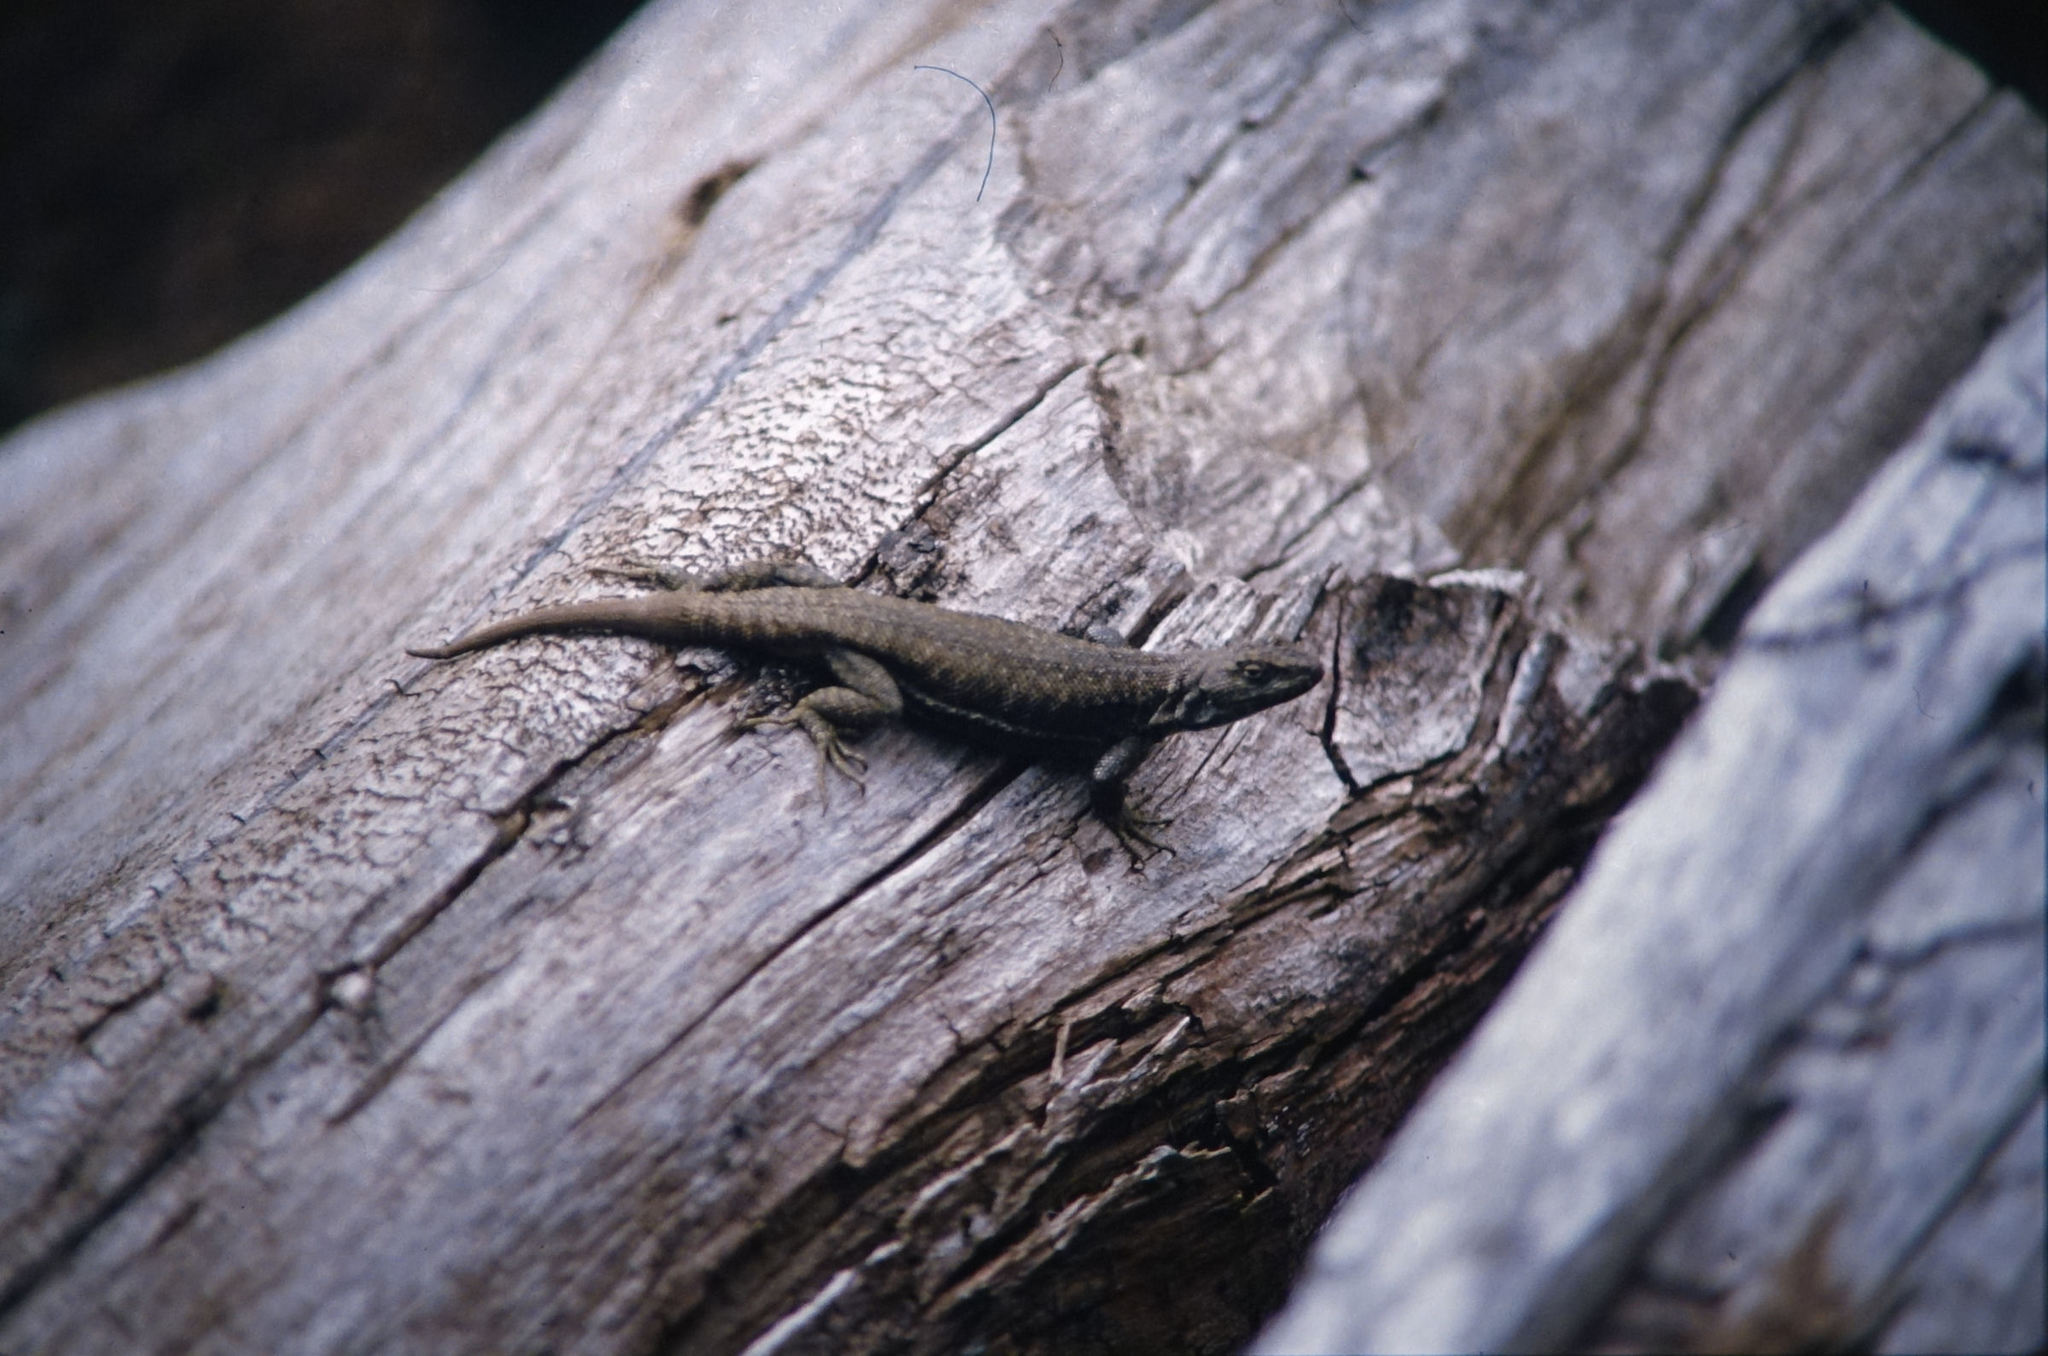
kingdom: Animalia
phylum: Chordata
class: Squamata
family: Liolaemidae
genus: Liolaemus
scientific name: Liolaemus elongatus
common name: Elongate tree iguana
